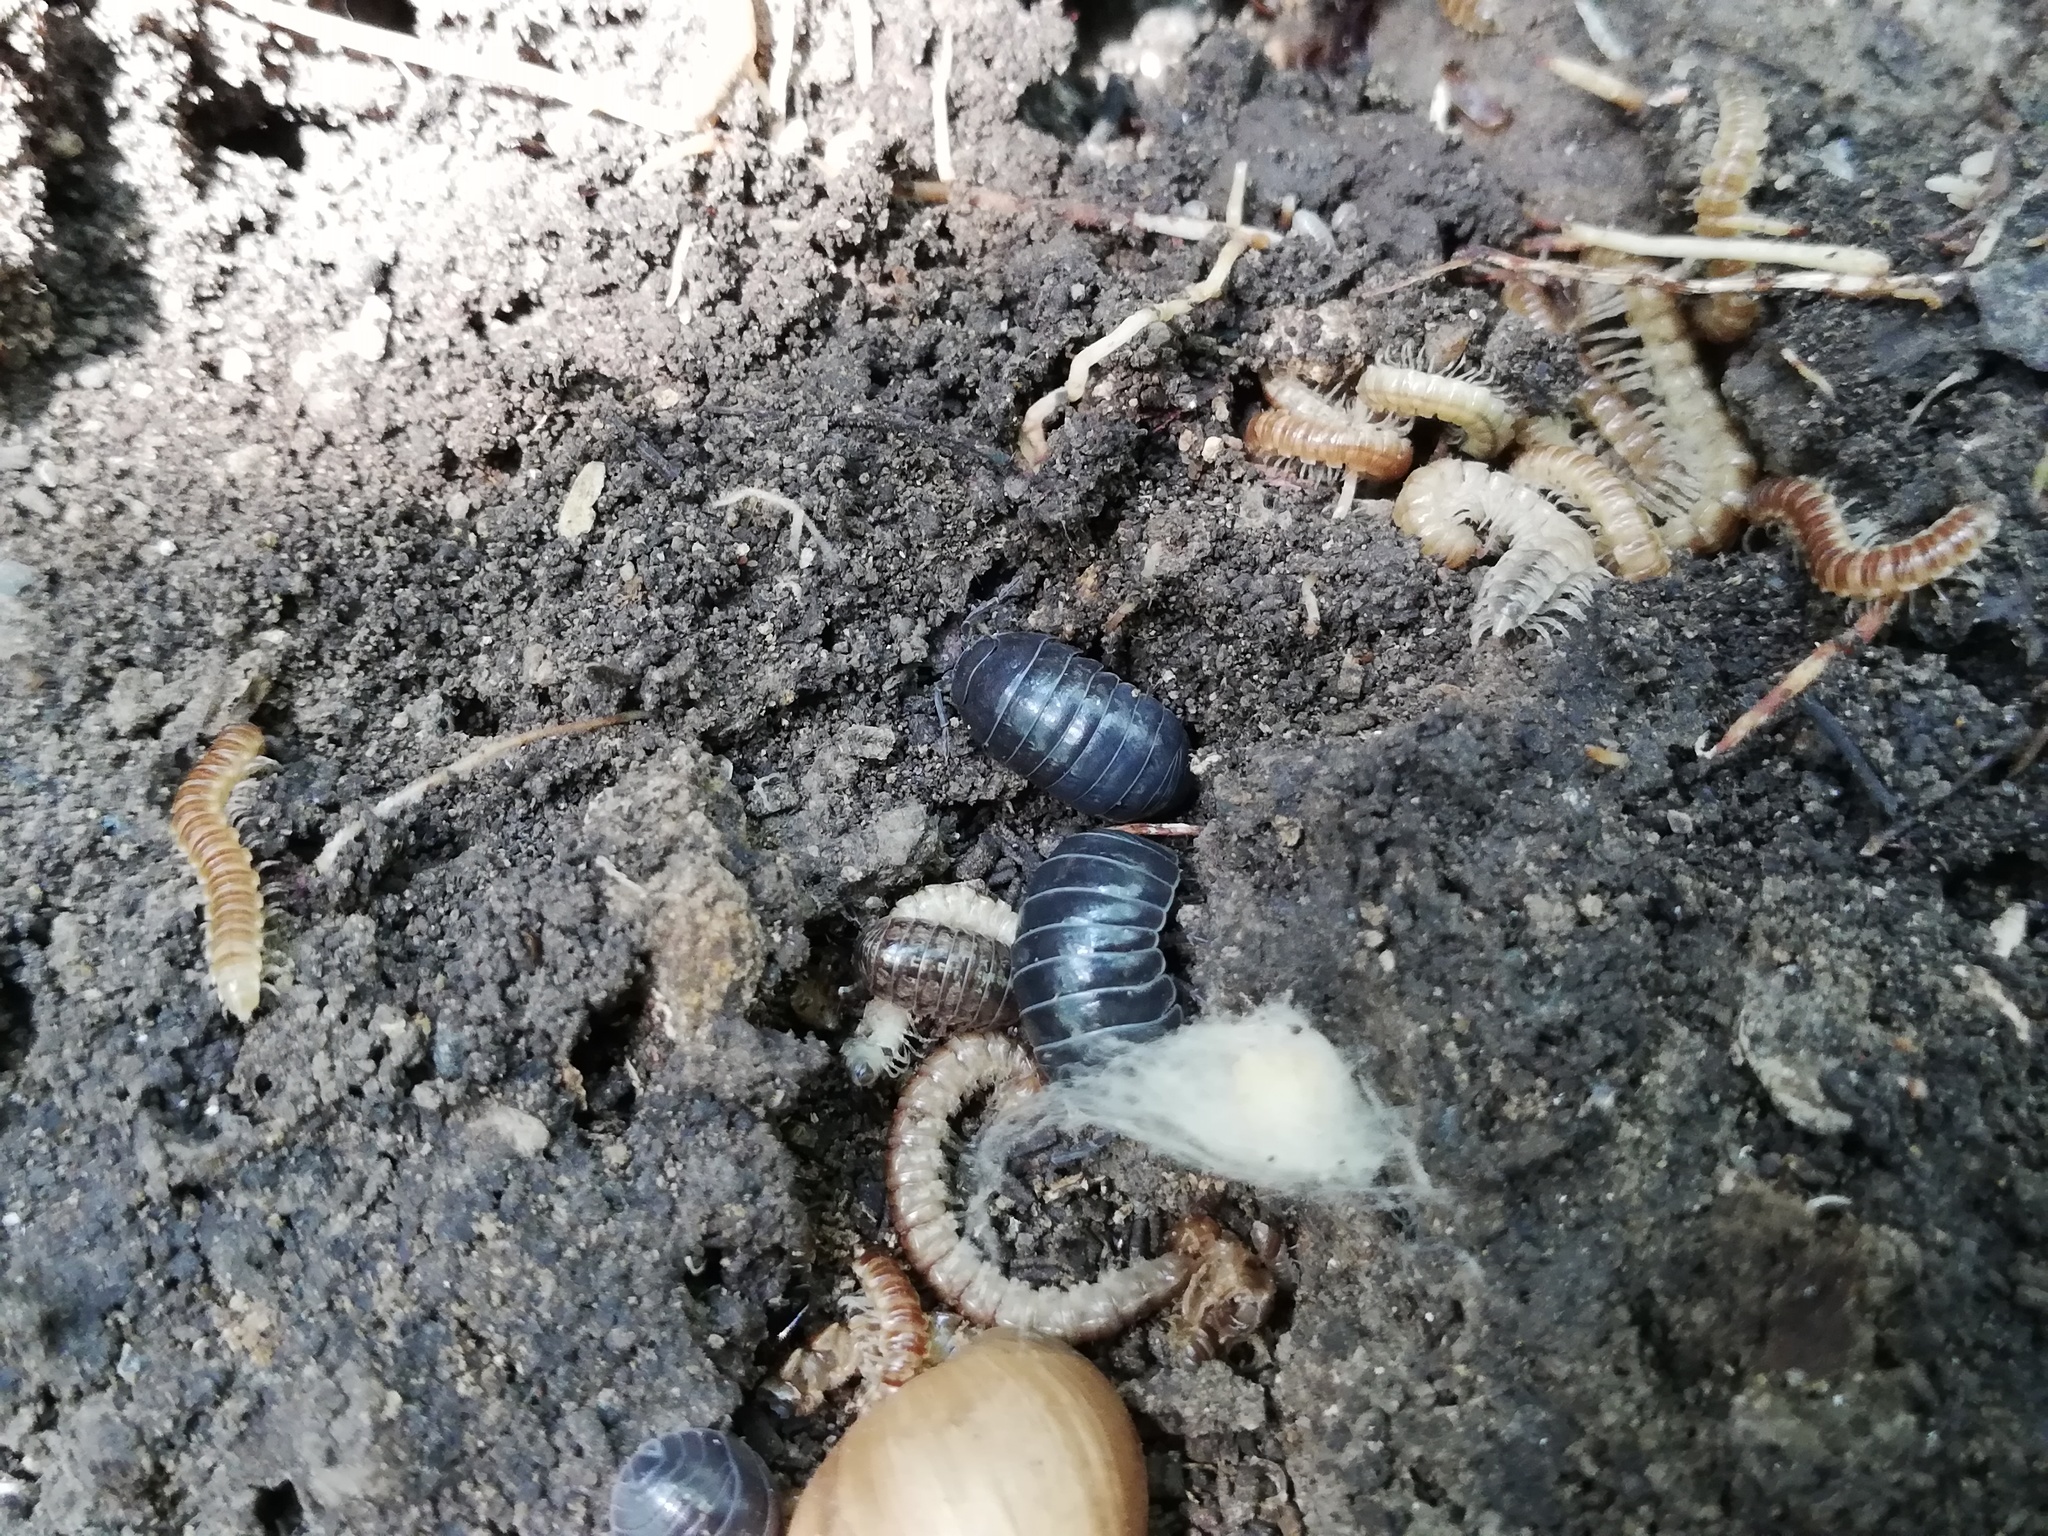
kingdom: Animalia
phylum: Arthropoda
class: Malacostraca
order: Isopoda
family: Armadillidiidae
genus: Armadillidium
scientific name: Armadillidium vulgare
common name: Common pill woodlouse
